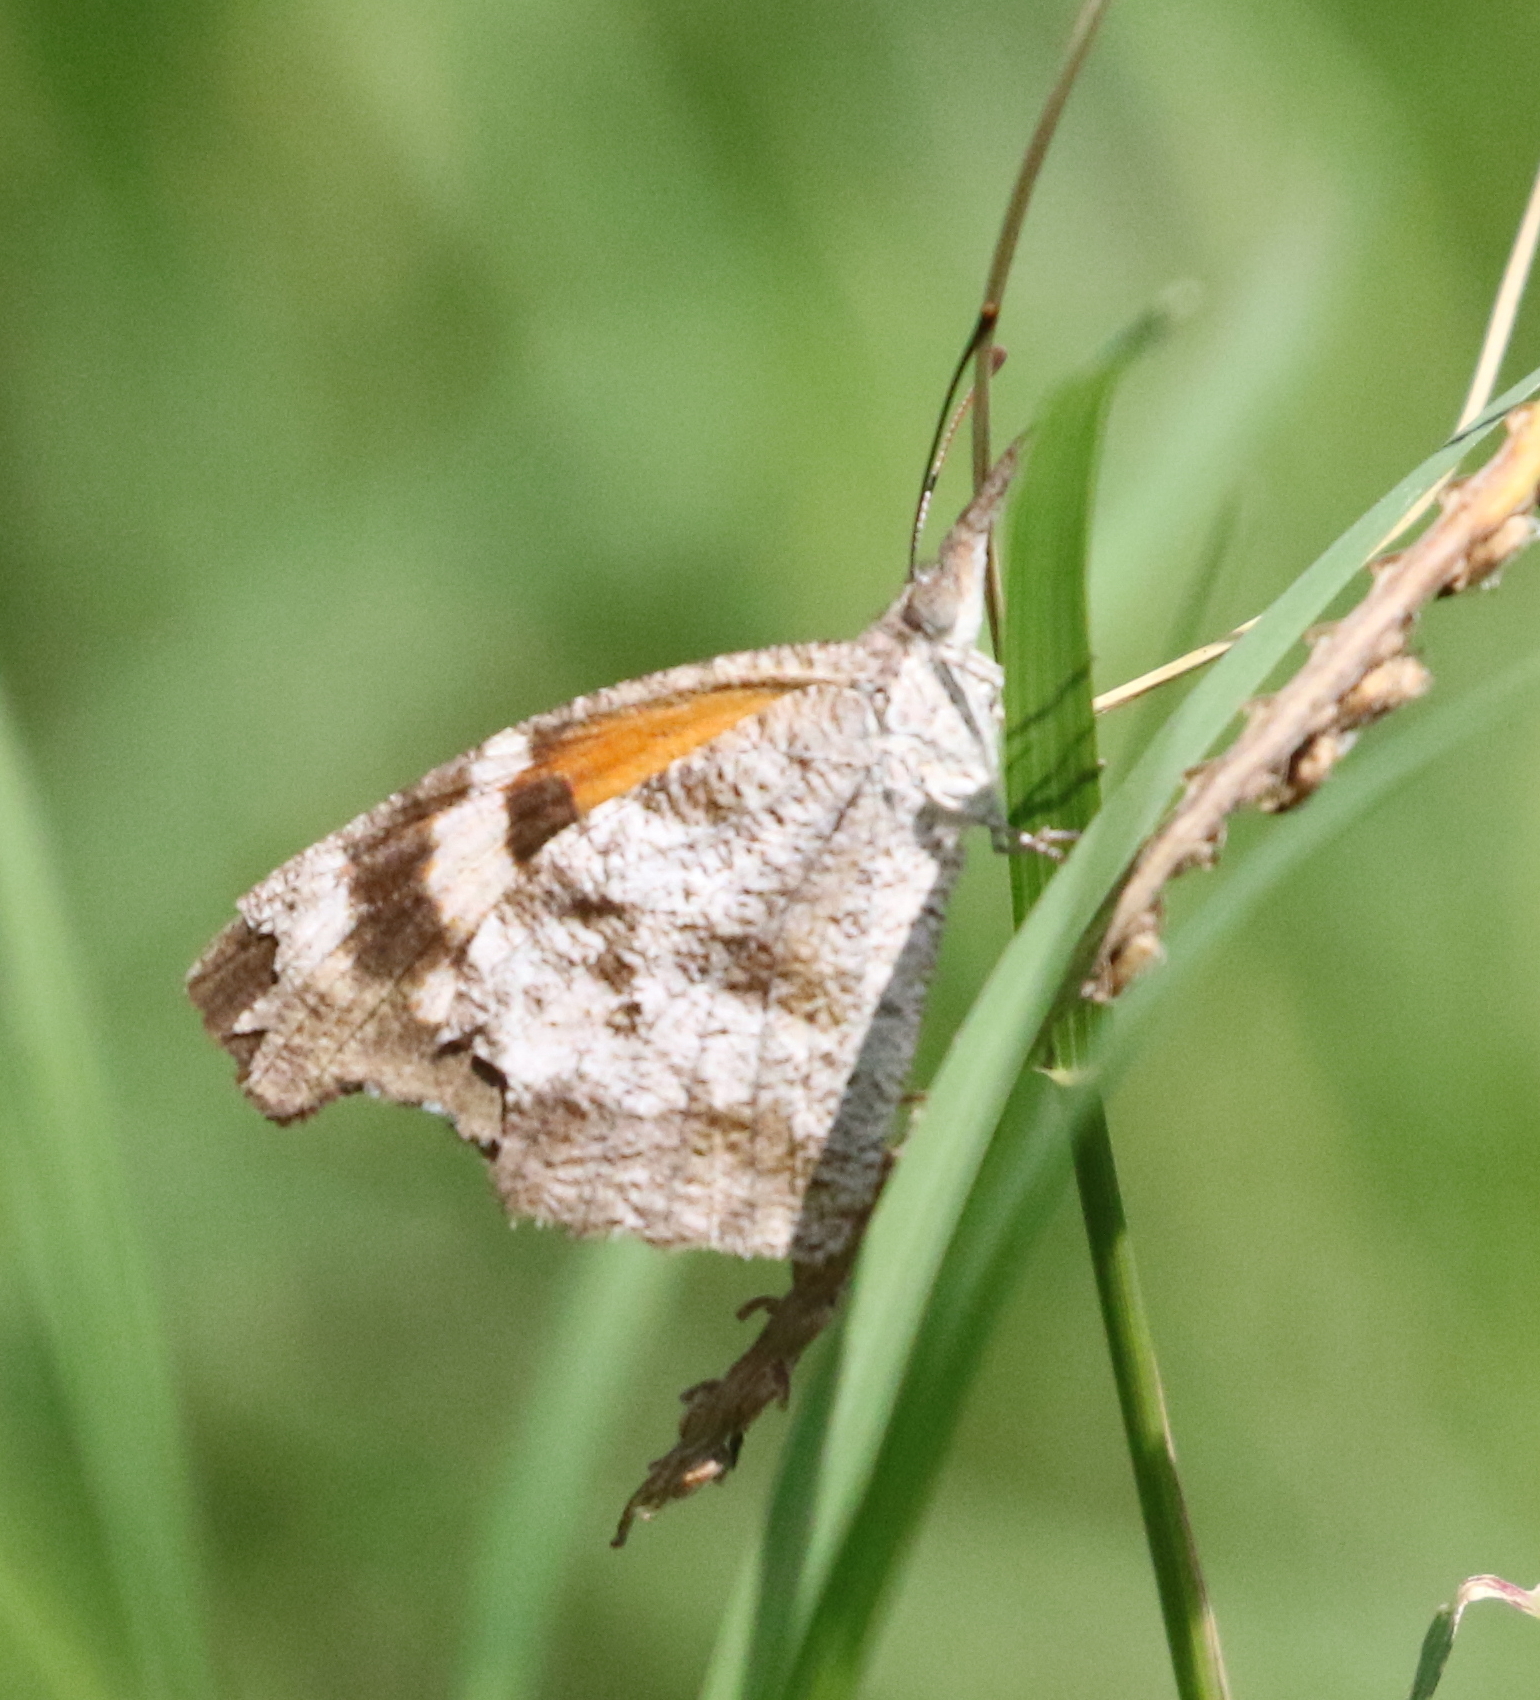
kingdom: Animalia
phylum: Arthropoda
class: Insecta
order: Lepidoptera
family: Nymphalidae
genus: Libytheana
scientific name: Libytheana carinenta
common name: American snout
